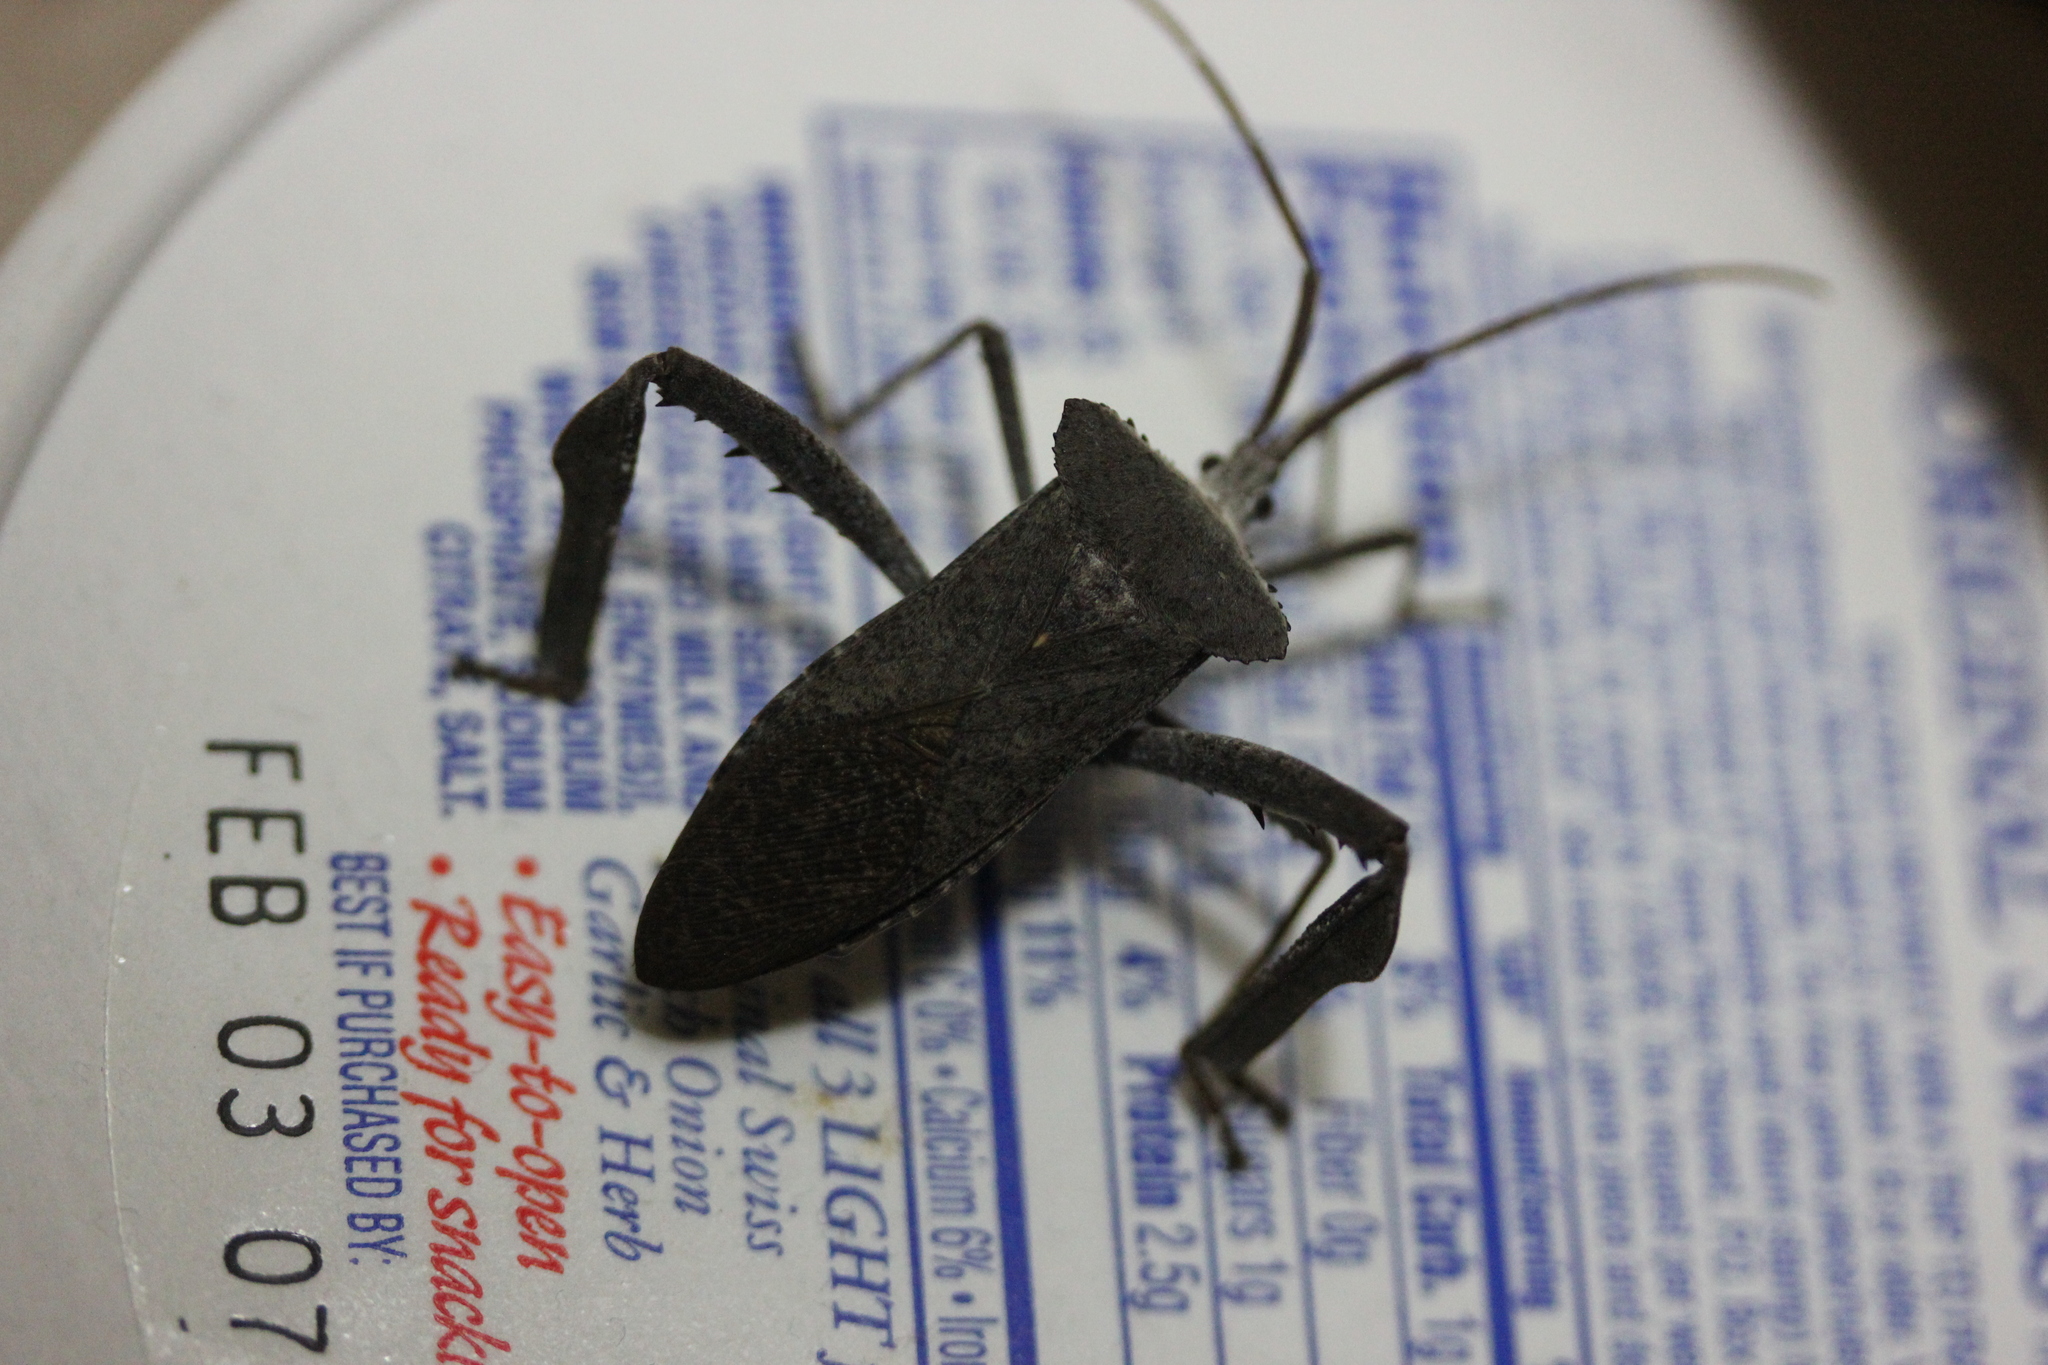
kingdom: Animalia
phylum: Arthropoda
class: Insecta
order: Hemiptera
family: Coreidae
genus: Acanthocephala
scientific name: Acanthocephala declivis
